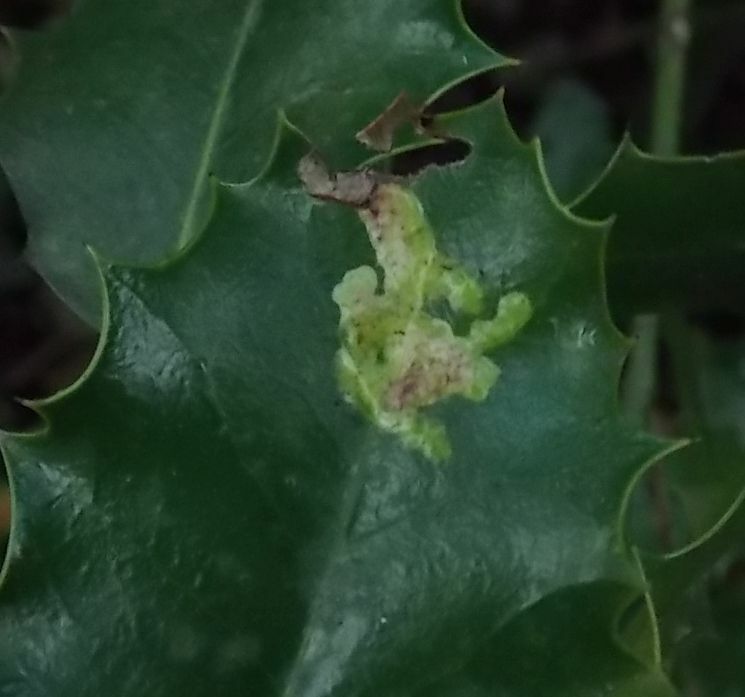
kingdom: Animalia
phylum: Arthropoda
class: Insecta
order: Diptera
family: Agromyzidae
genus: Phytomyza
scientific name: Phytomyza ilicis
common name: Holly leafminer
